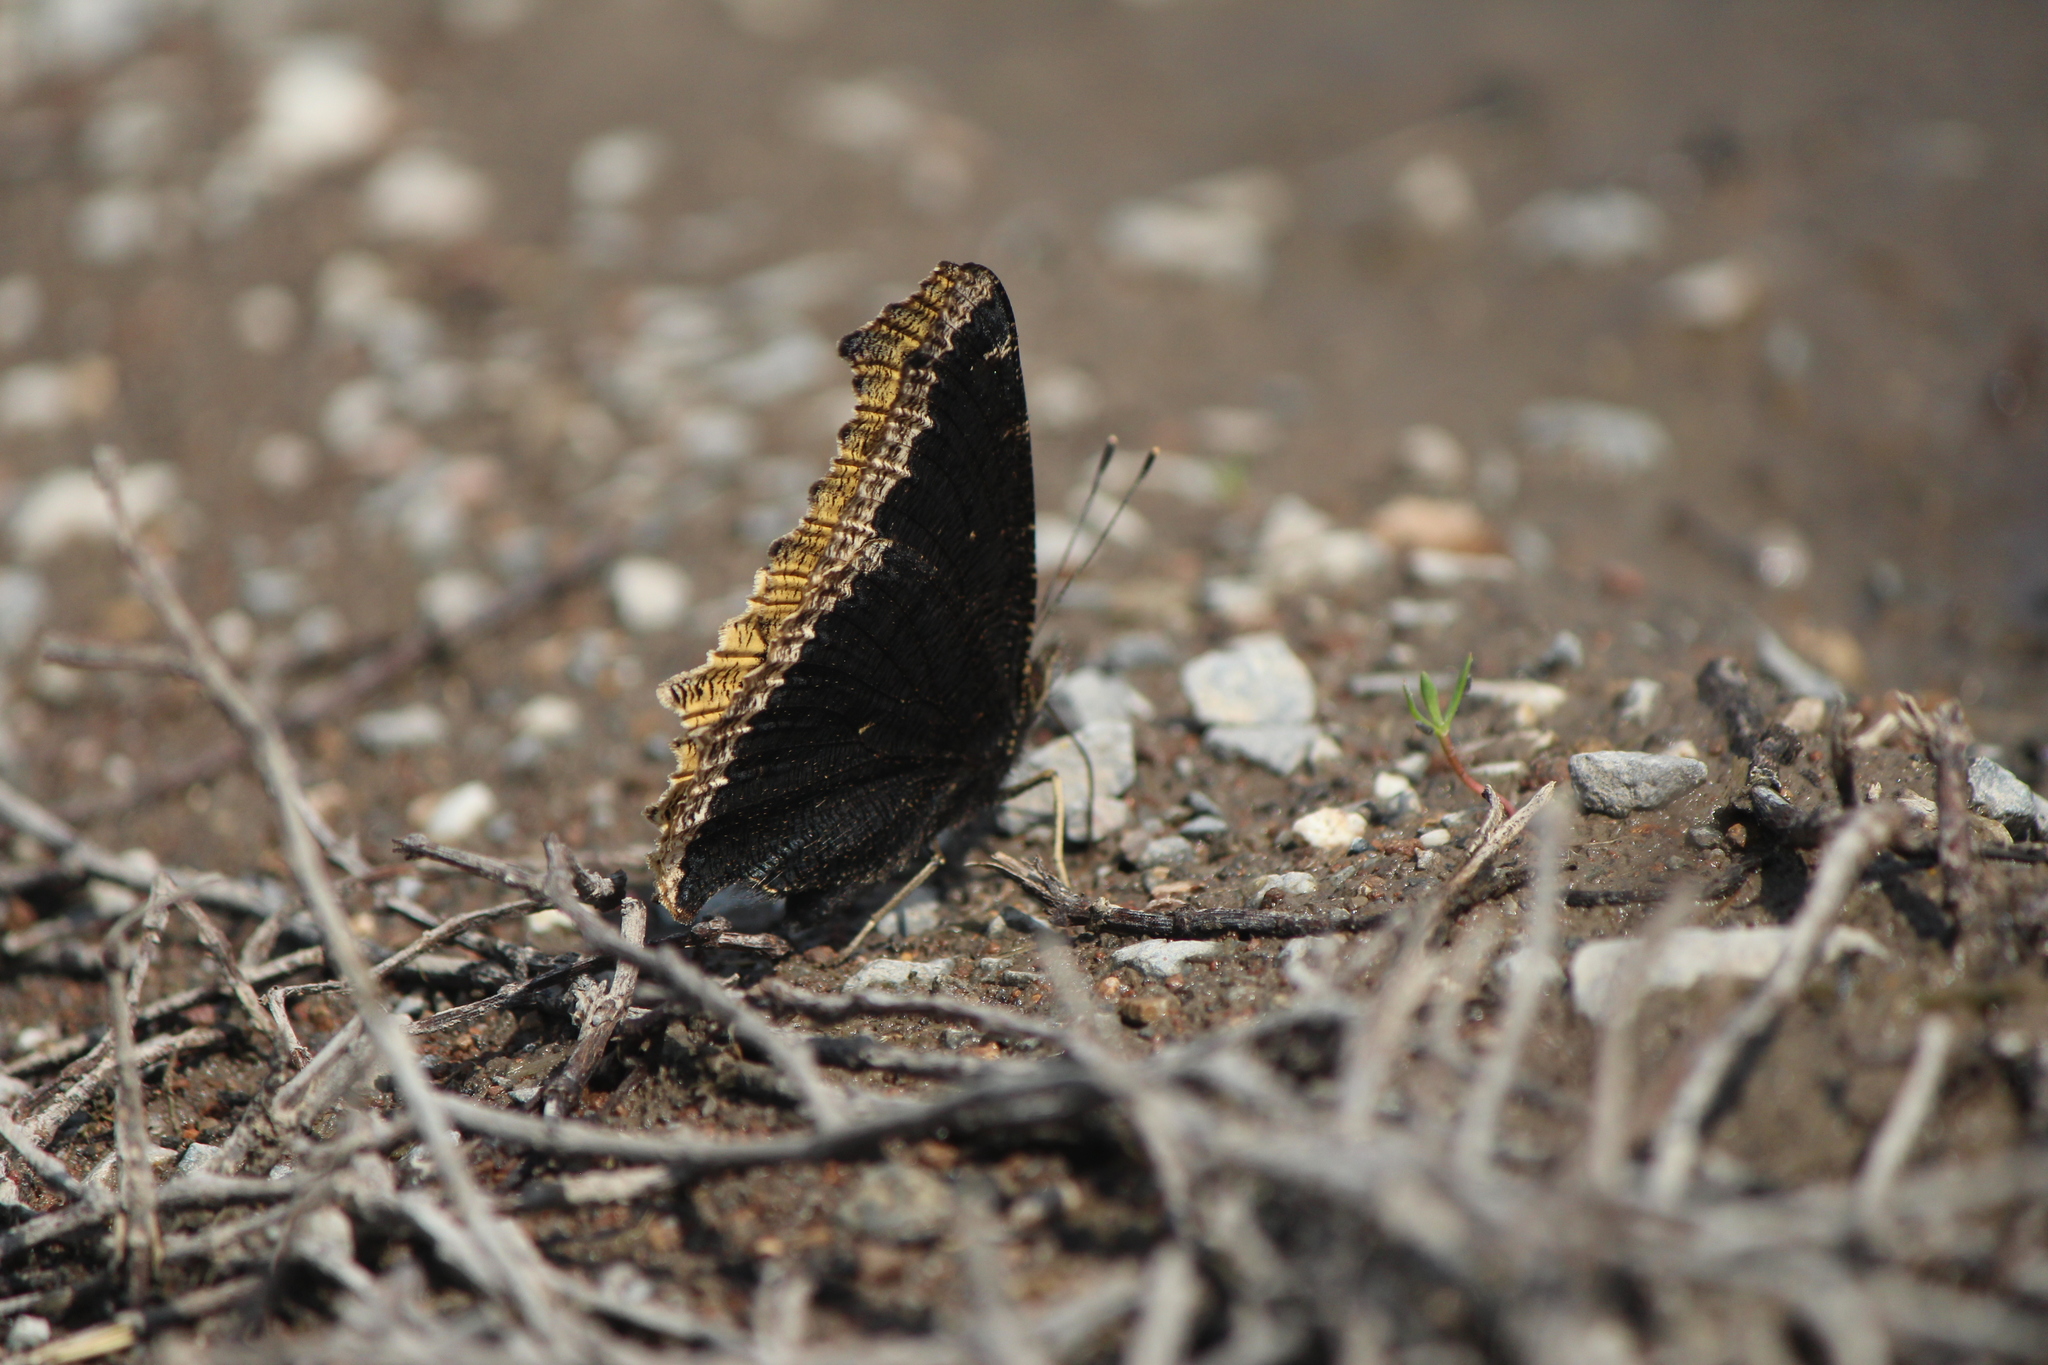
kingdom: Animalia
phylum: Arthropoda
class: Insecta
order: Lepidoptera
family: Nymphalidae
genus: Nymphalis
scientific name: Nymphalis antiopa
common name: Camberwell beauty
